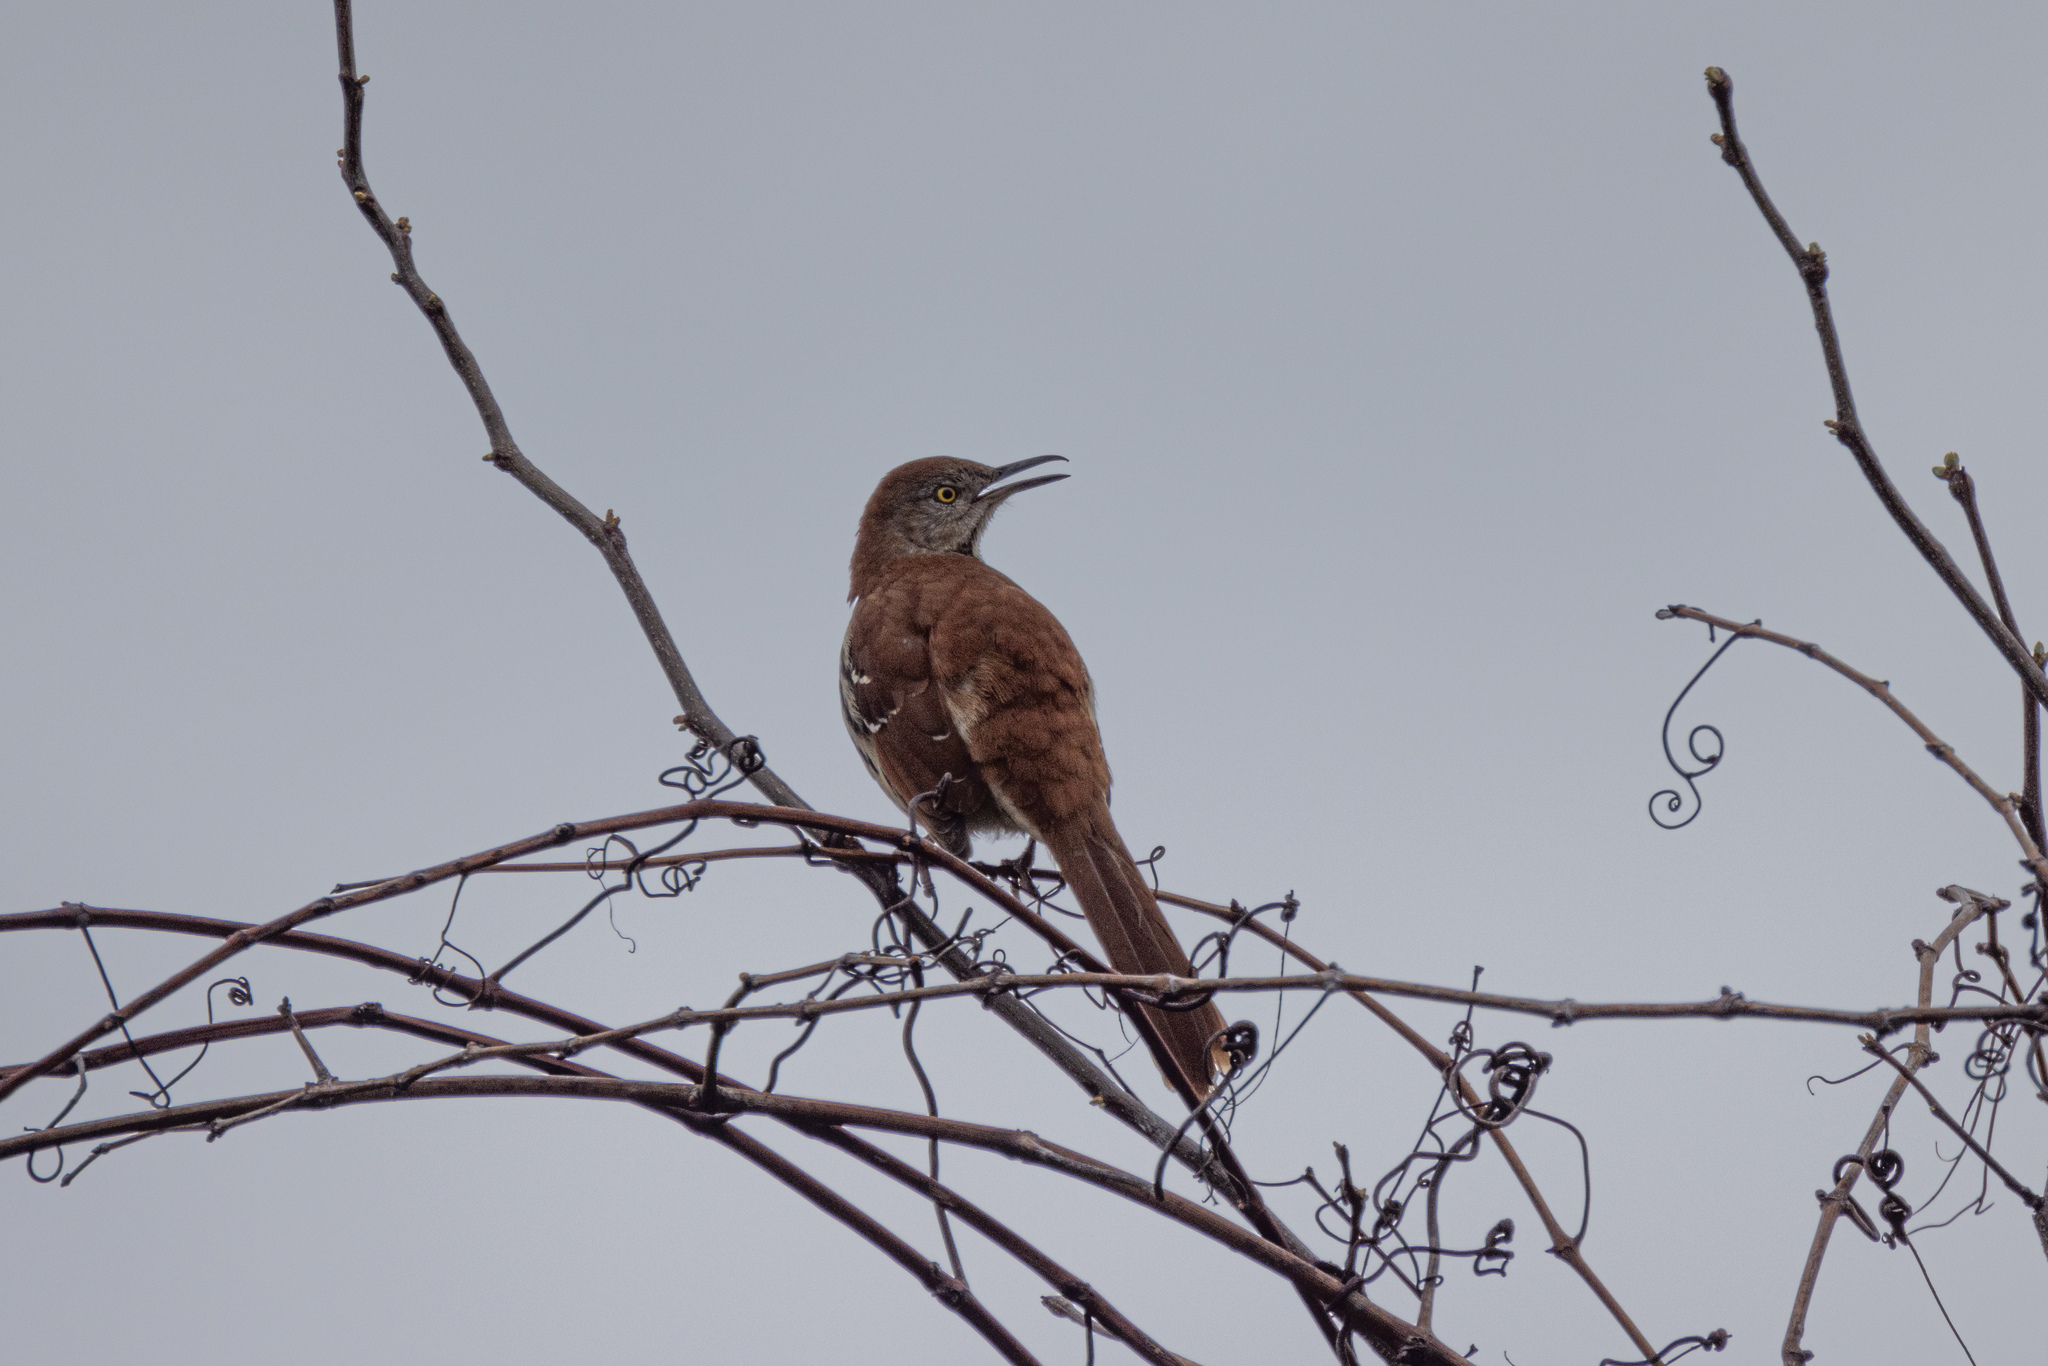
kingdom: Animalia
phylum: Chordata
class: Aves
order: Passeriformes
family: Mimidae
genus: Toxostoma
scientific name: Toxostoma rufum
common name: Brown thrasher
